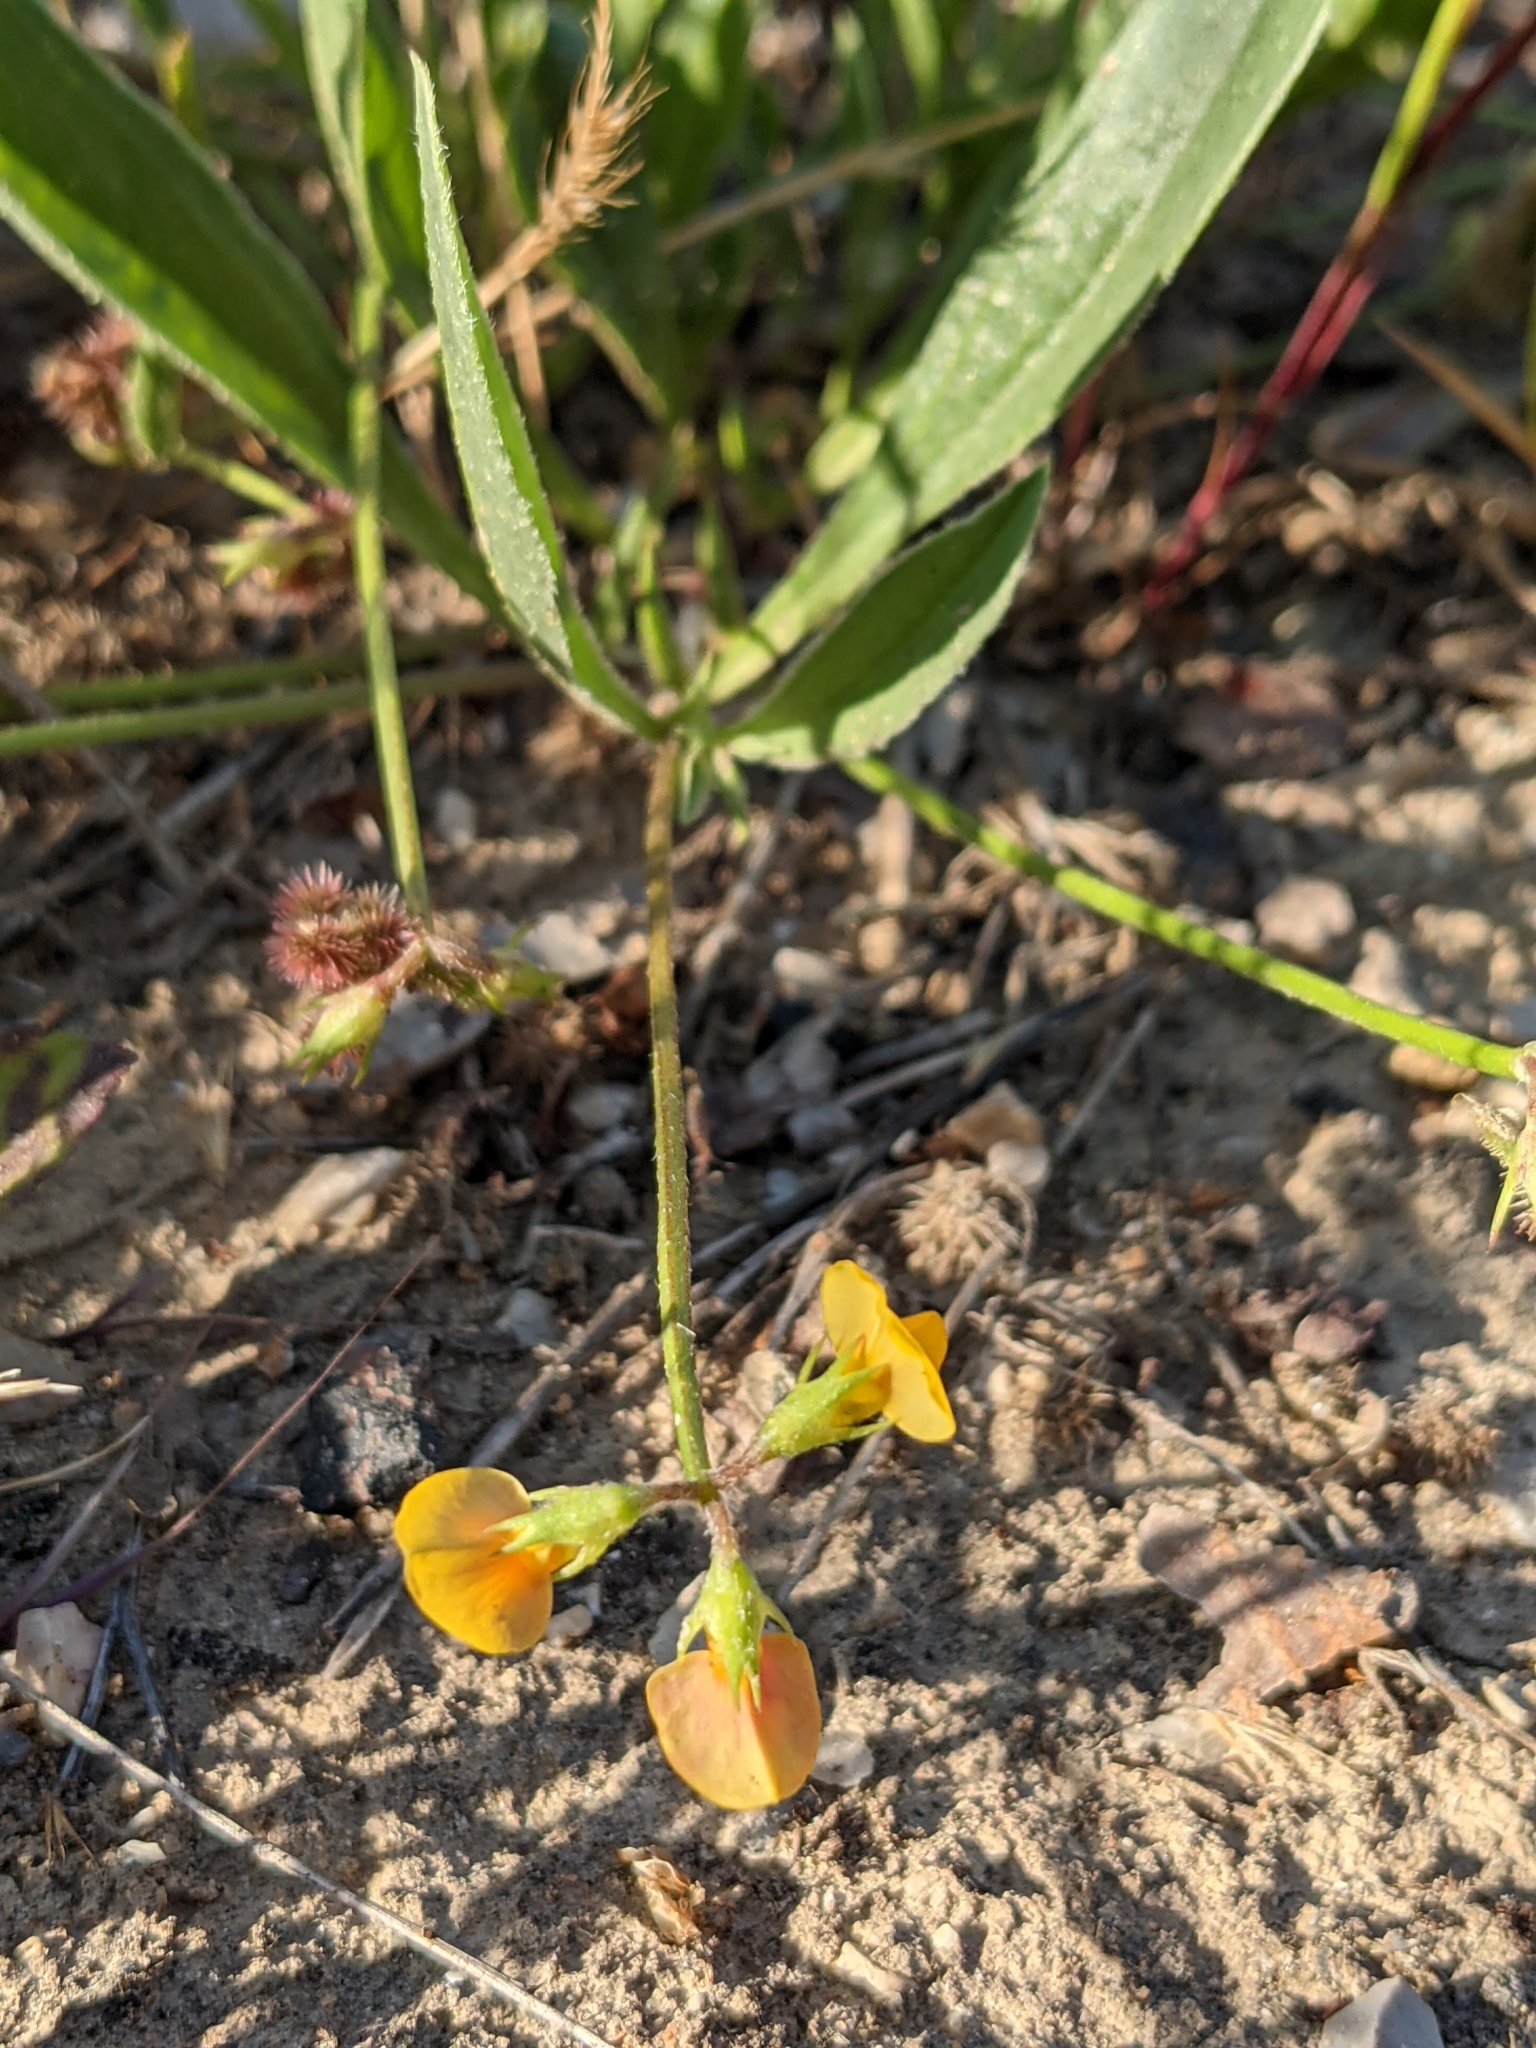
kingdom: Plantae
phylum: Tracheophyta
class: Magnoliopsida
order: Fabales
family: Fabaceae
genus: Scorpiurus
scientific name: Scorpiurus muricatus
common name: Caterpillar-plant
